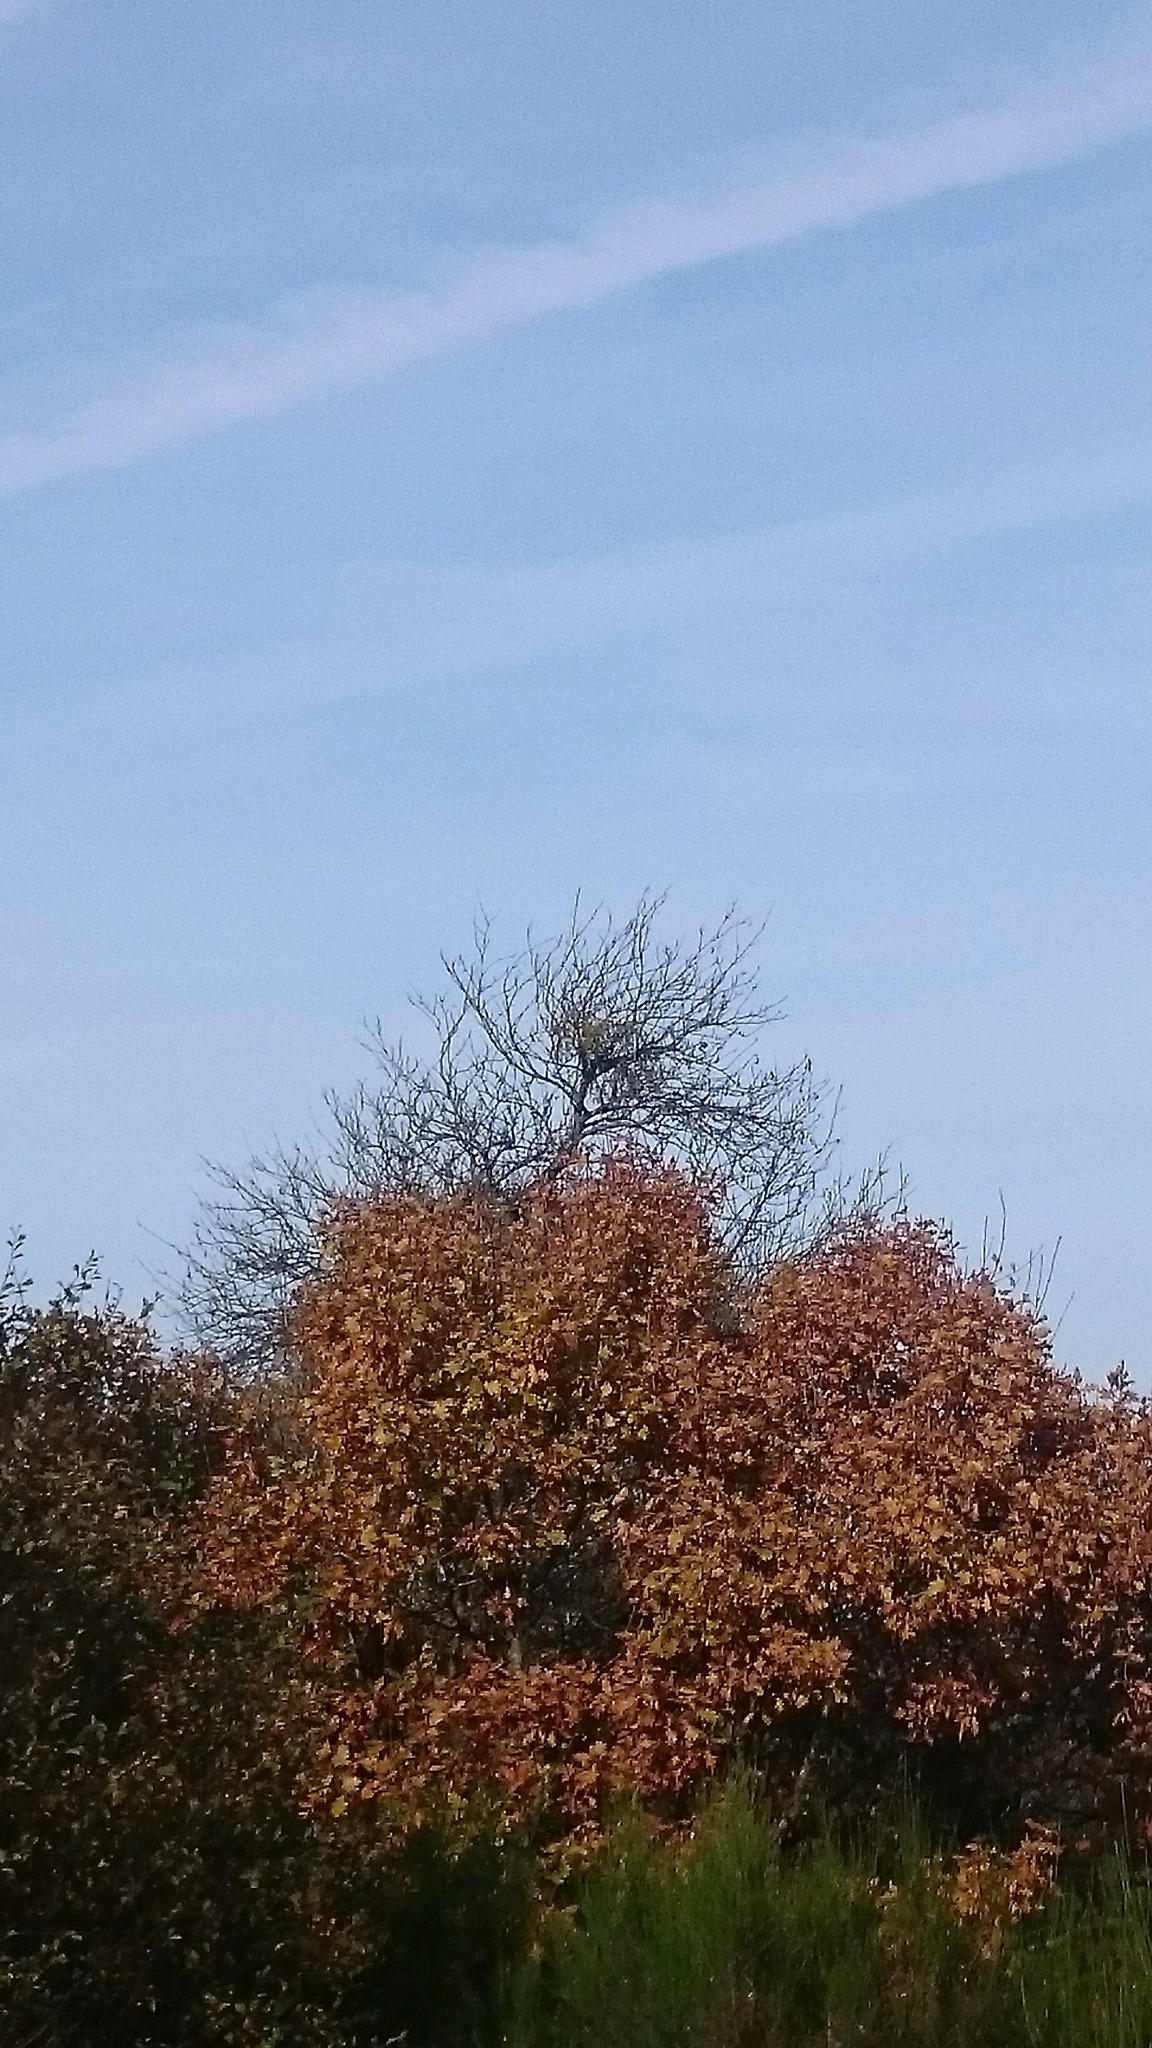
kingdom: Plantae
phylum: Tracheophyta
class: Magnoliopsida
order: Santalales
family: Viscaceae
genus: Viscum
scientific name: Viscum album
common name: Mistletoe
